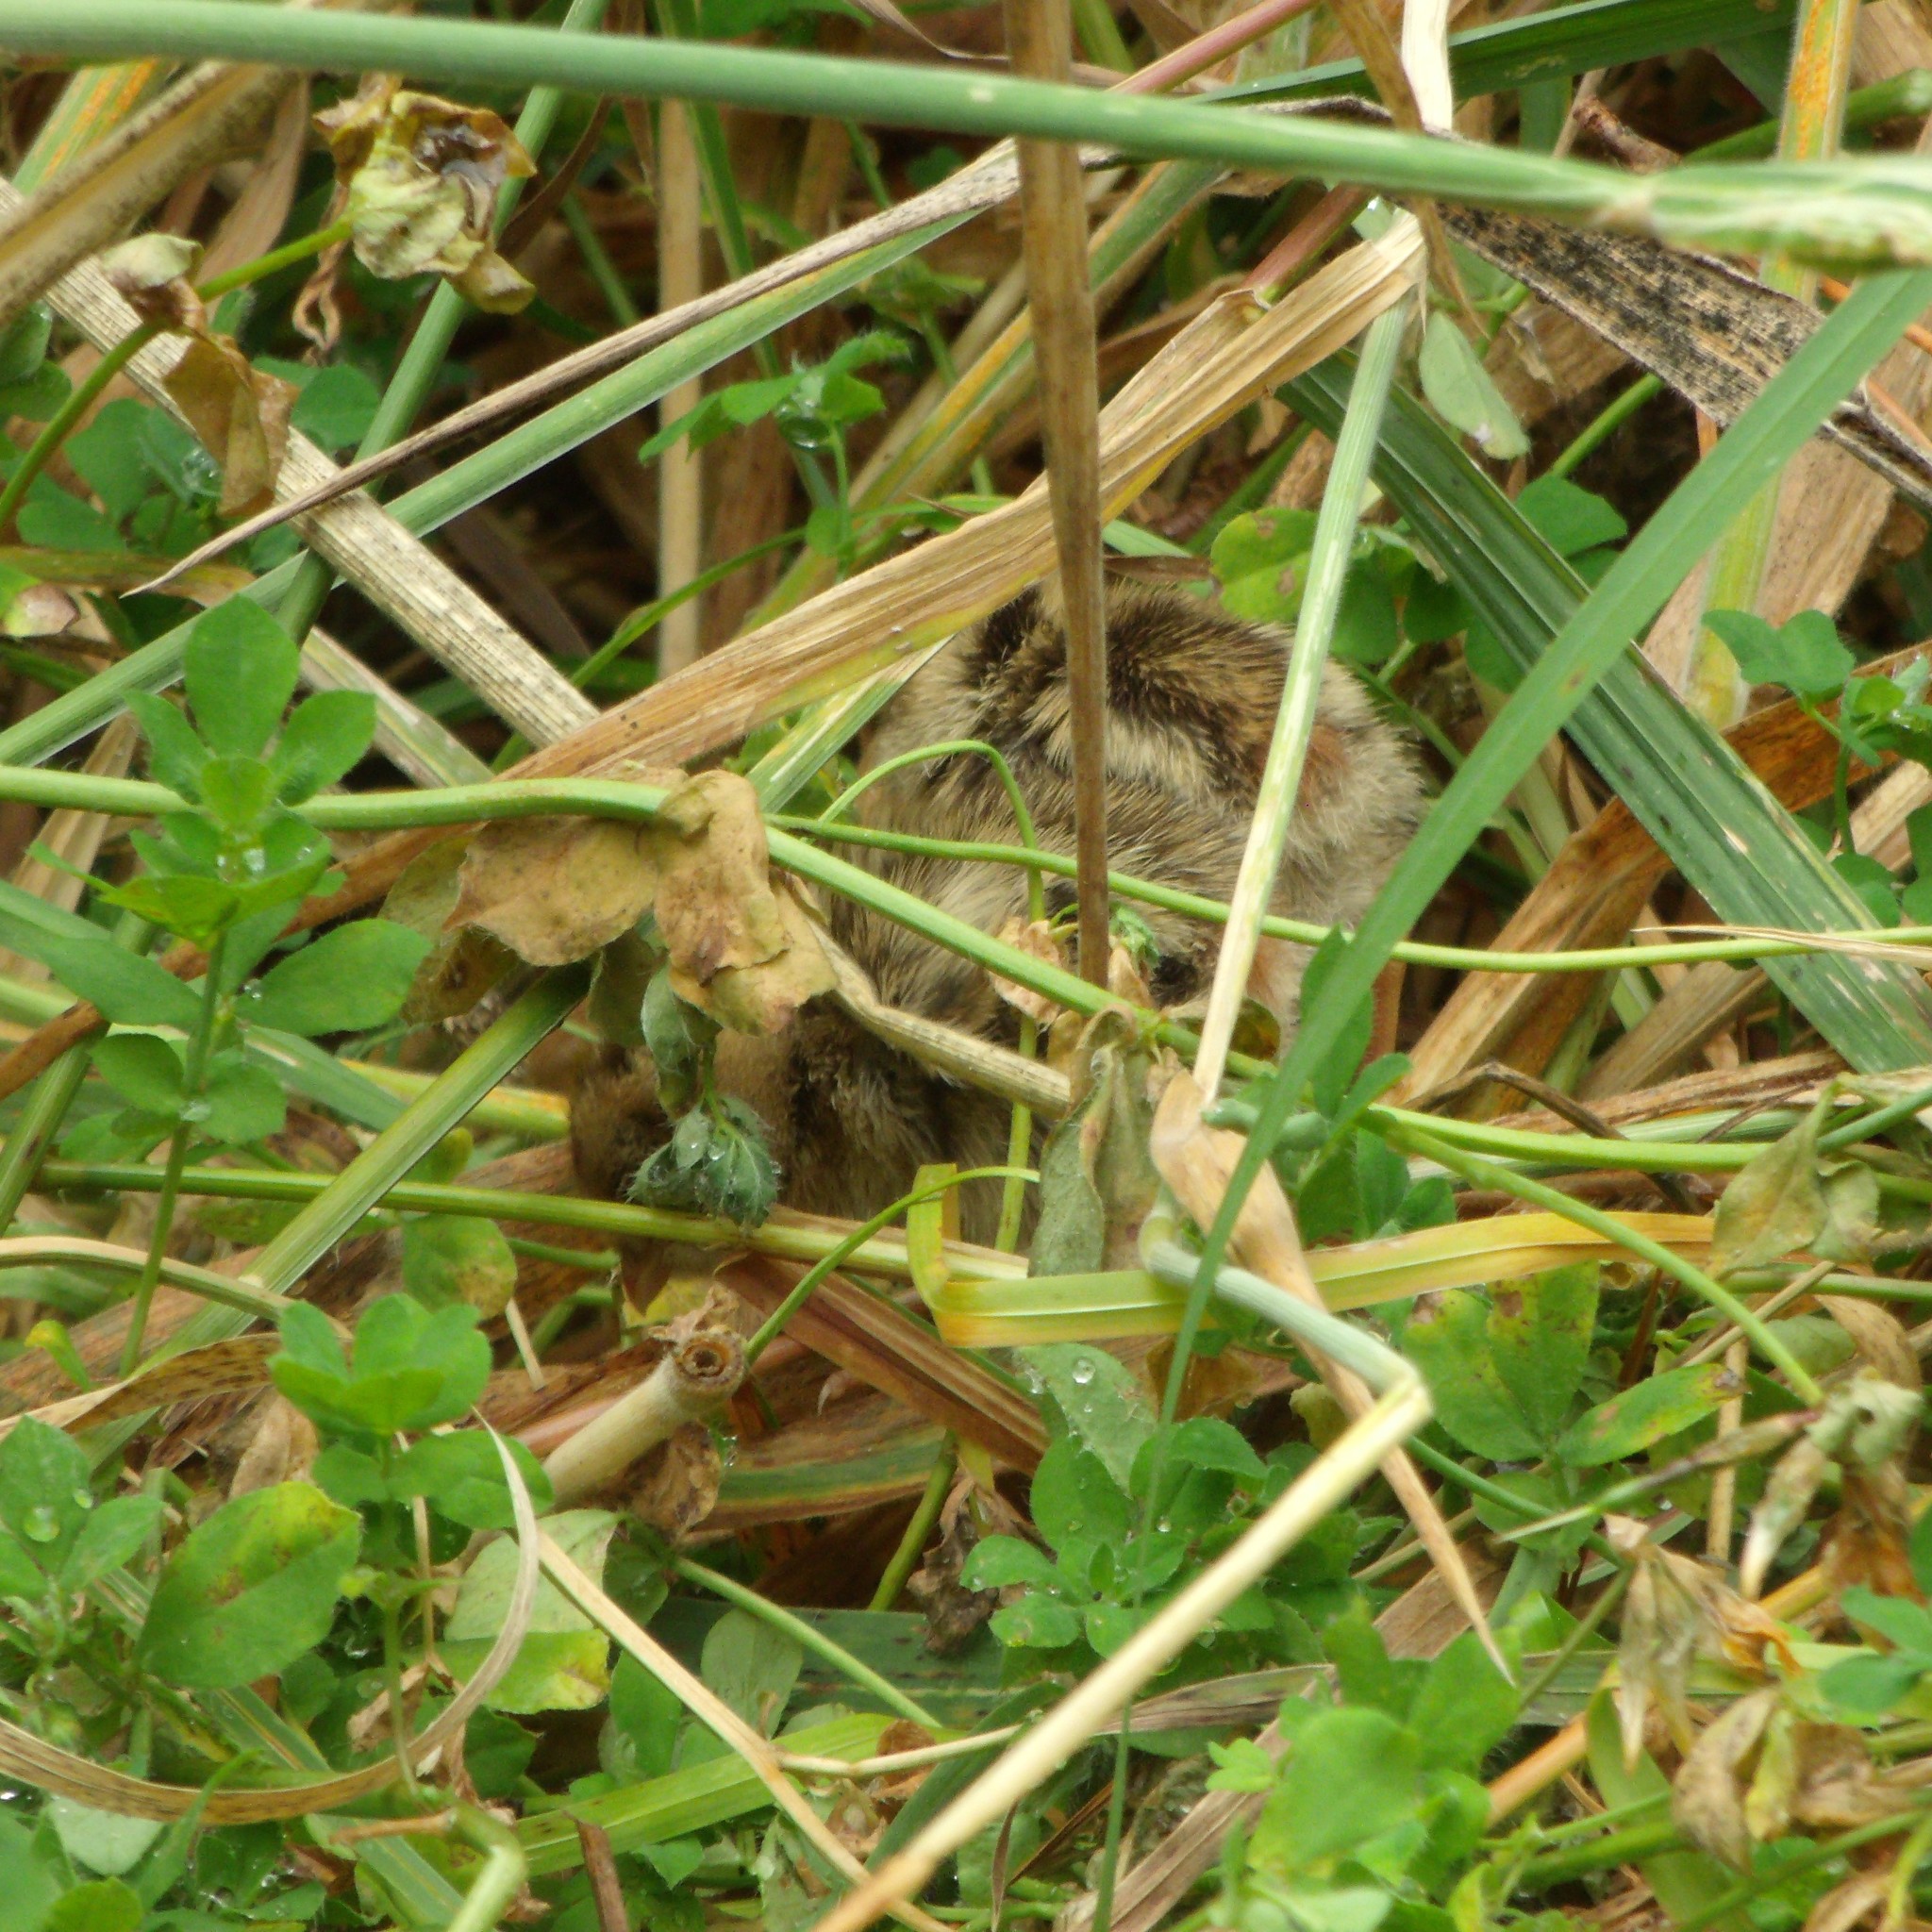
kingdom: Animalia
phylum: Chordata
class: Aves
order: Galliformes
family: Odontophoridae
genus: Callipepla
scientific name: Callipepla californica
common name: California quail
